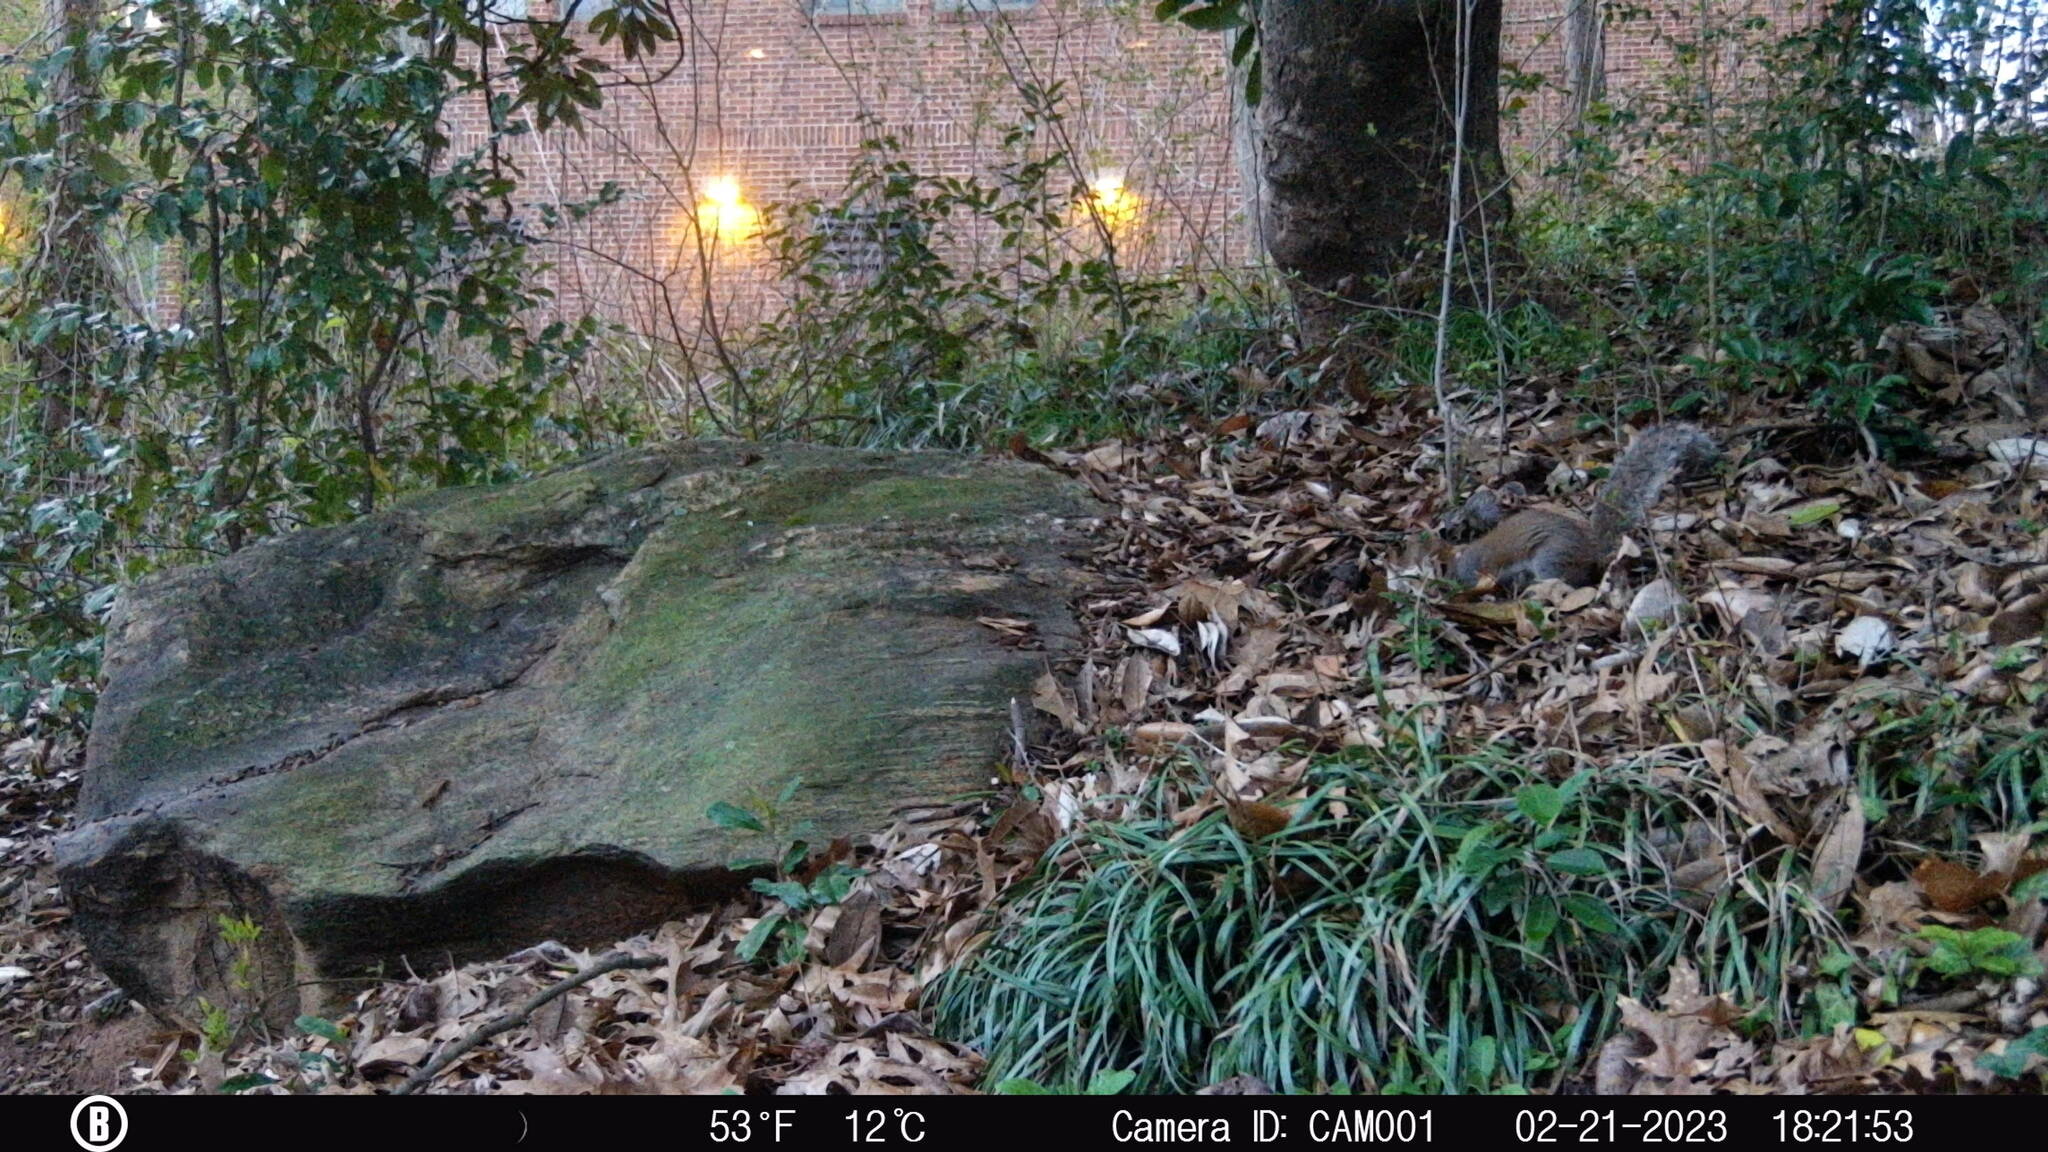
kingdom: Animalia
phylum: Chordata
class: Mammalia
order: Rodentia
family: Sciuridae
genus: Sciurus
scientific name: Sciurus carolinensis
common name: Eastern gray squirrel
